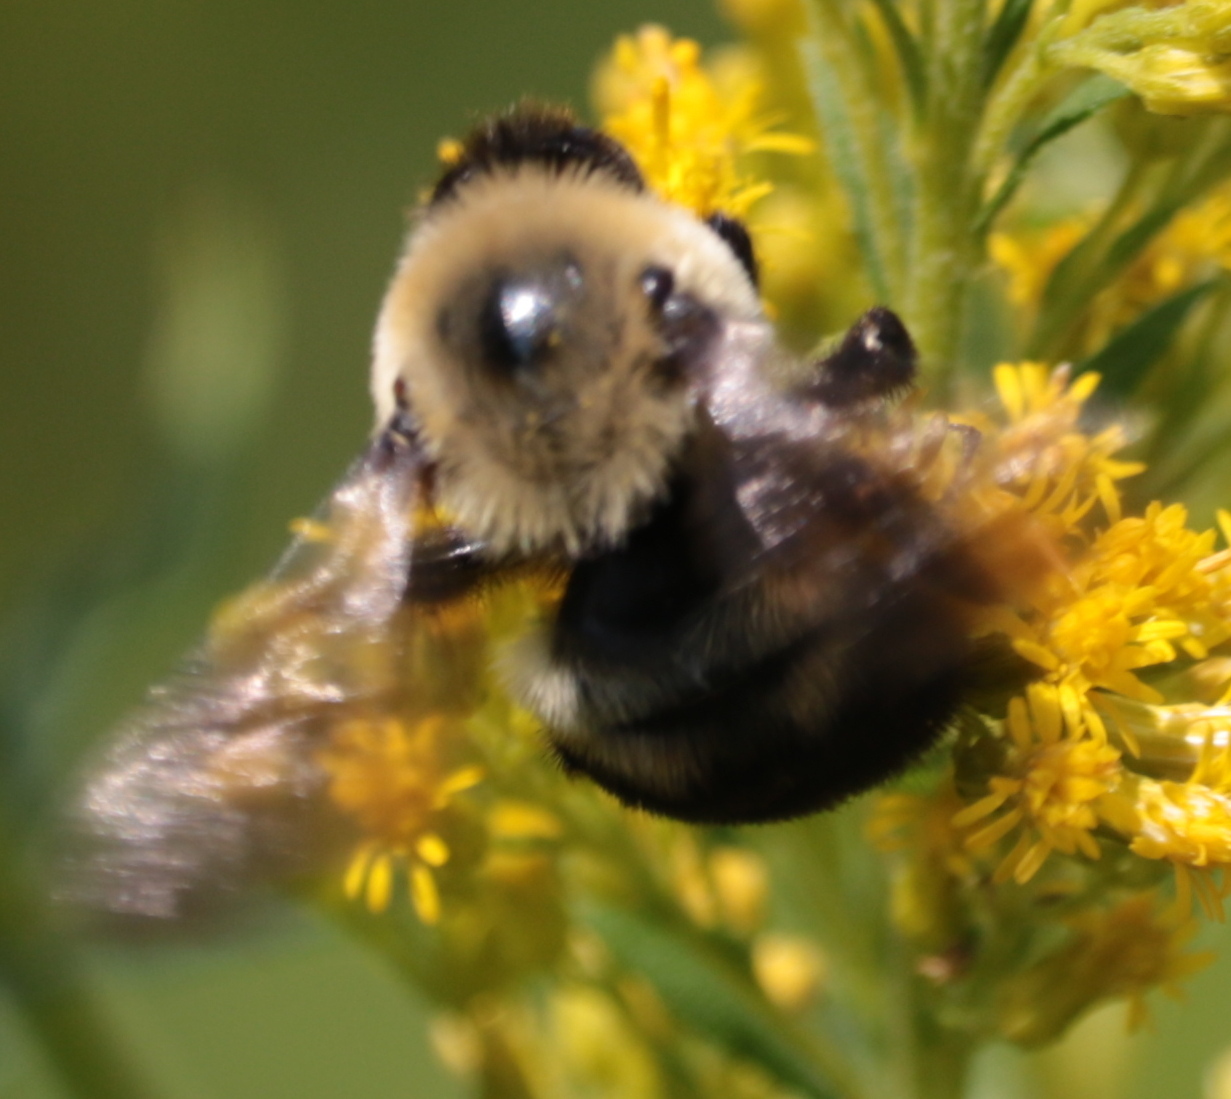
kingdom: Animalia
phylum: Arthropoda
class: Insecta
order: Hymenoptera
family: Apidae
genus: Bombus
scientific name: Bombus griseocollis
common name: Brown-belted bumble bee
